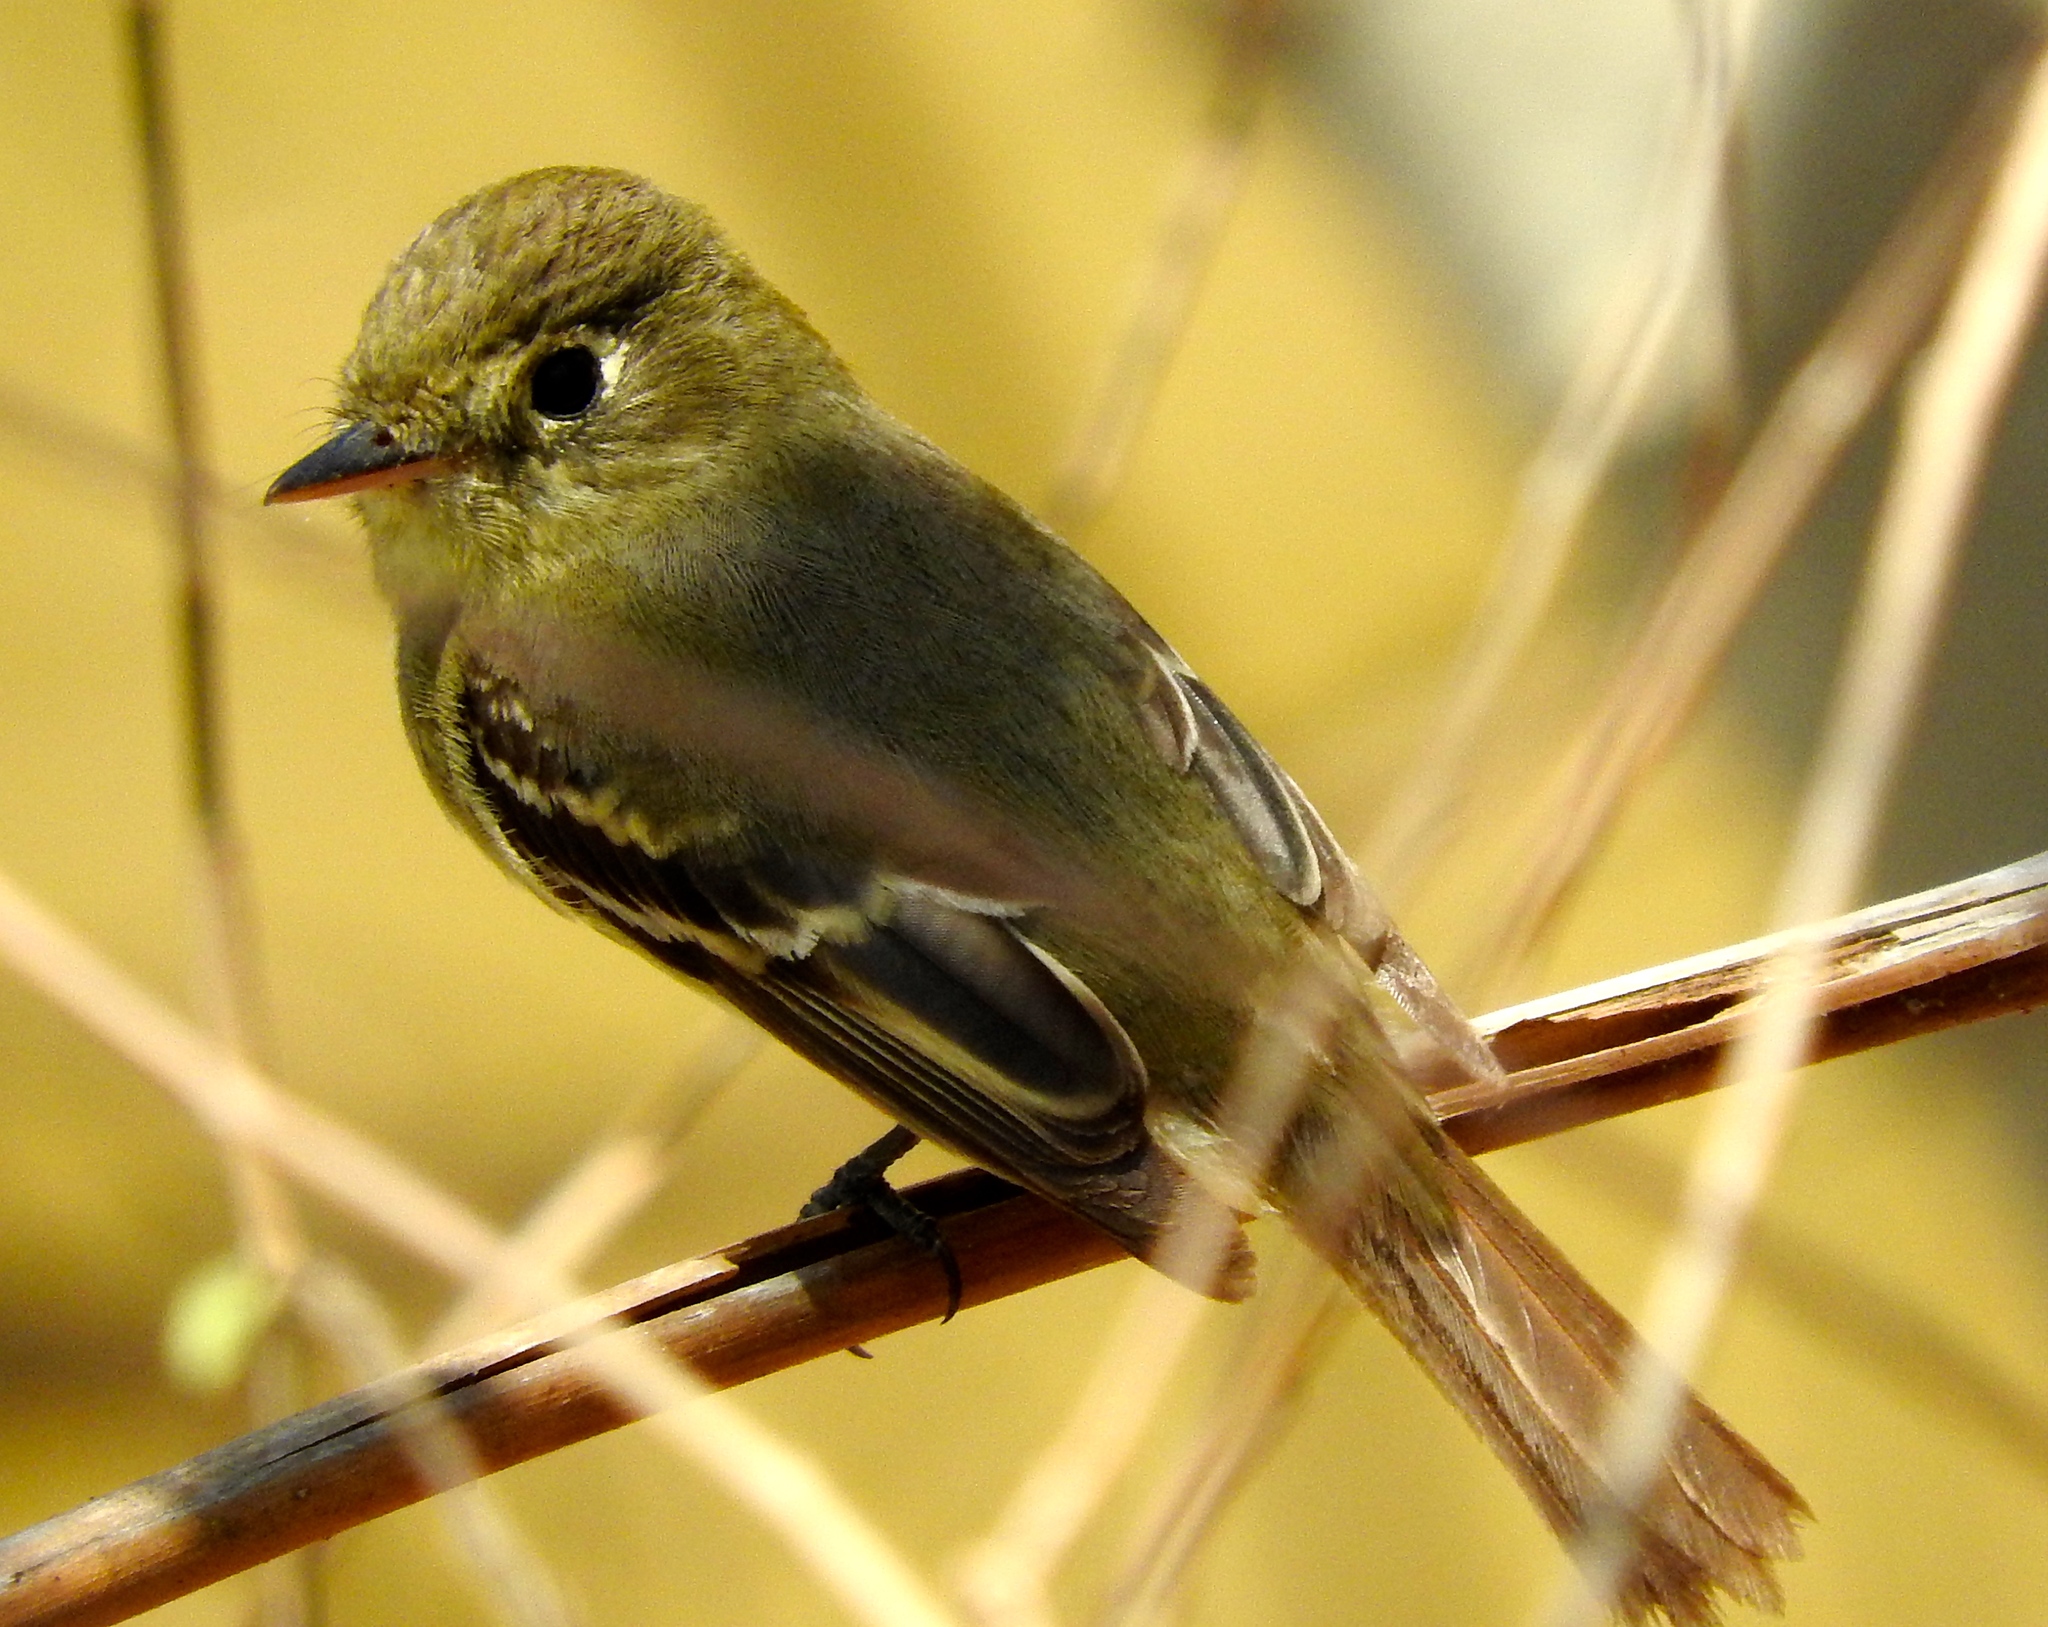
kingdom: Animalia
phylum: Chordata
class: Aves
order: Passeriformes
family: Tyrannidae
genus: Empidonax
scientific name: Empidonax difficilis
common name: Pacific-slope flycatcher
